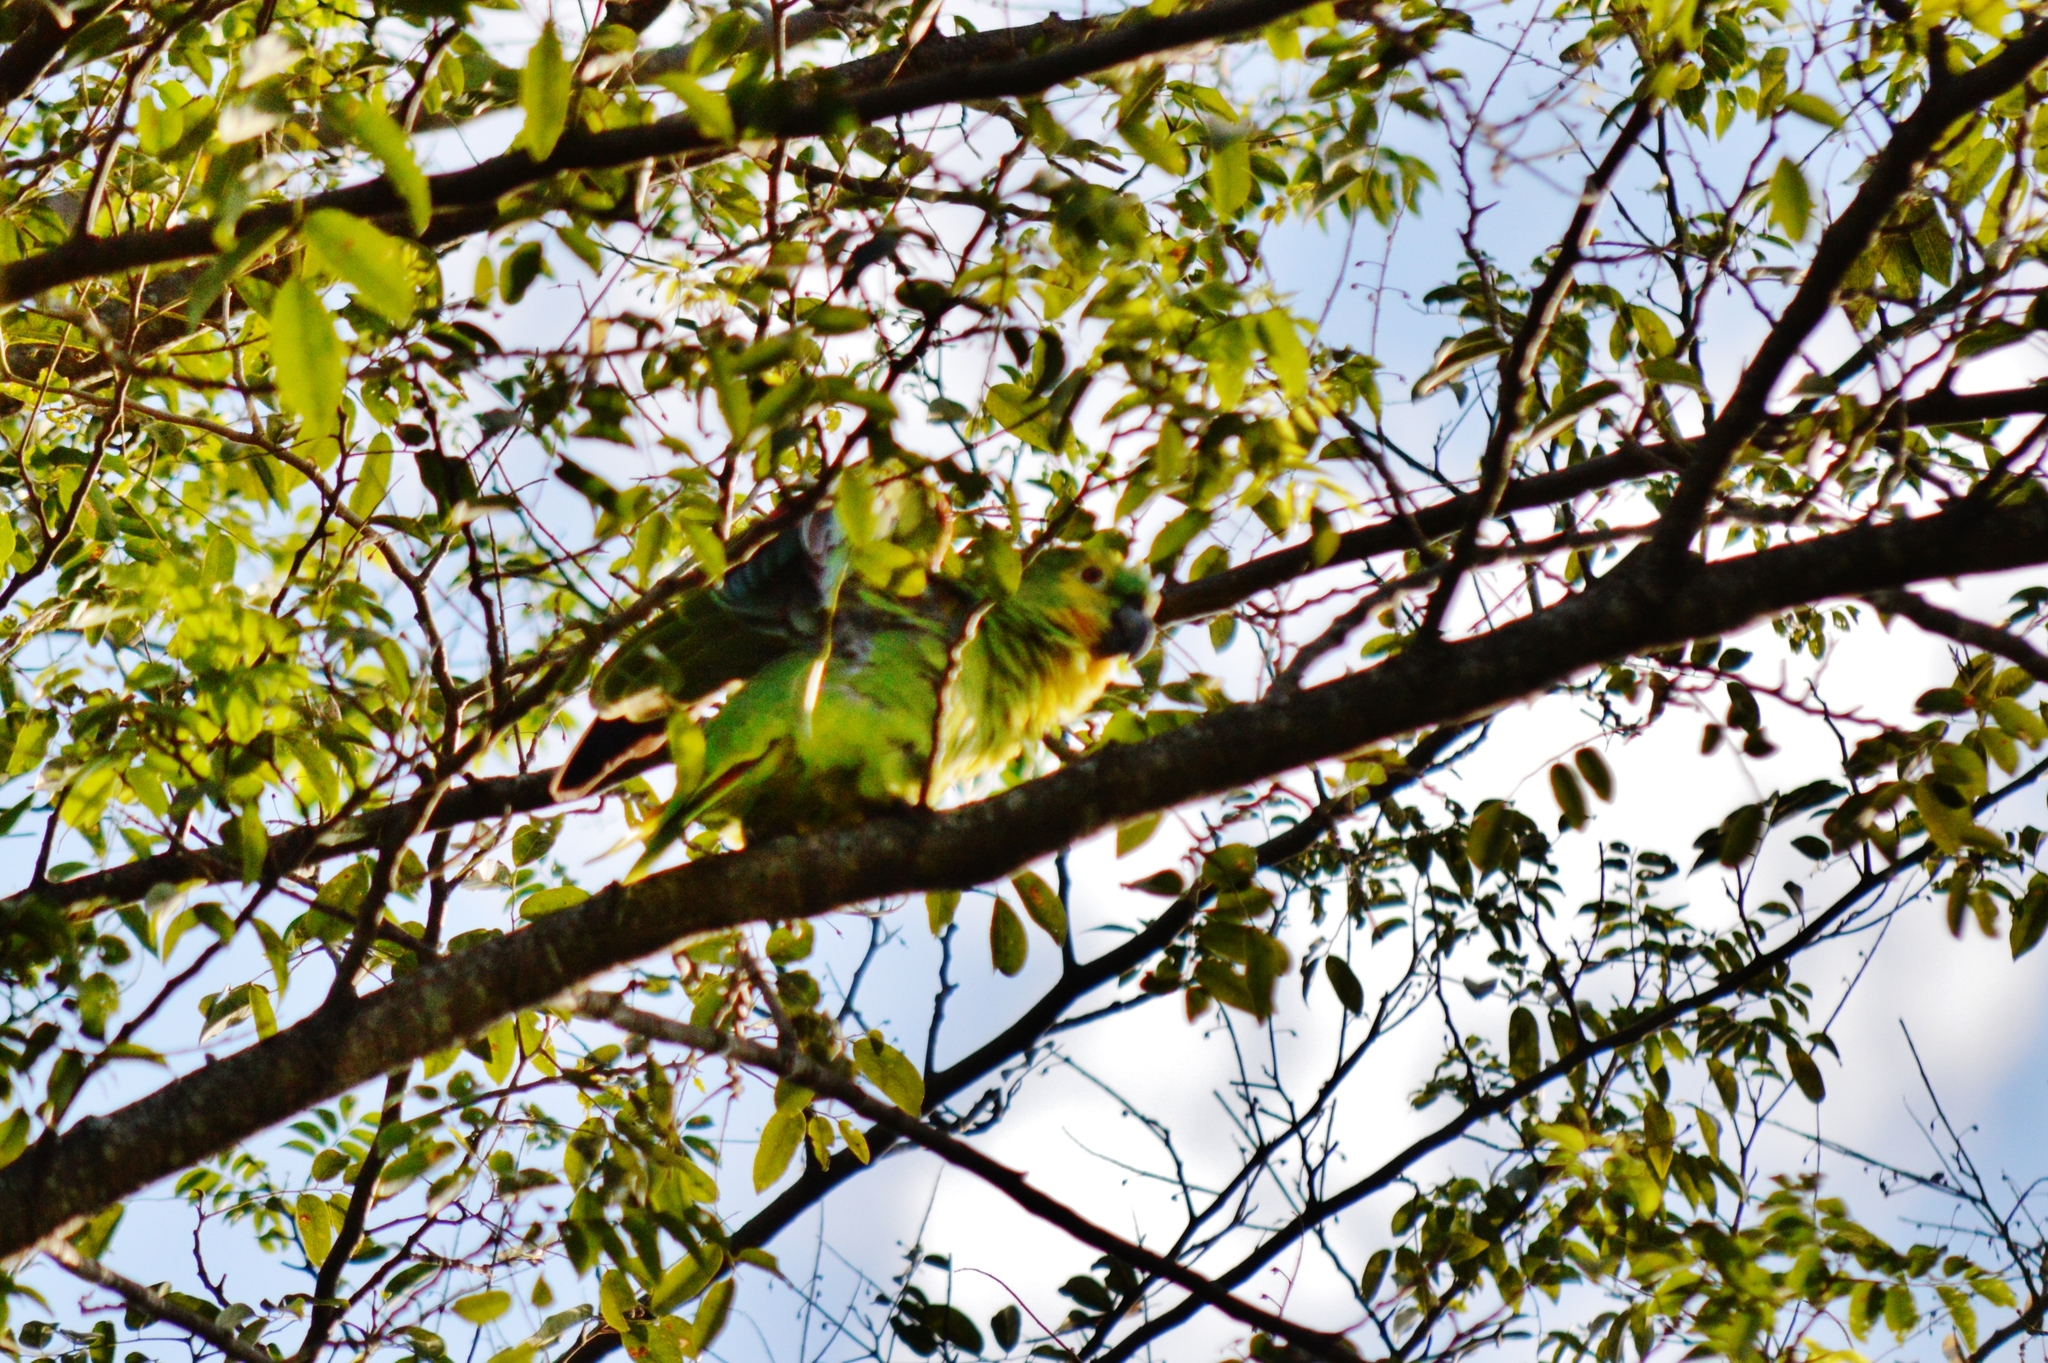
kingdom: Animalia
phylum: Chordata
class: Aves
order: Psittaciformes
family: Psittacidae
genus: Amazona
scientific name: Amazona aestiva
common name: Turquoise-fronted amazon
